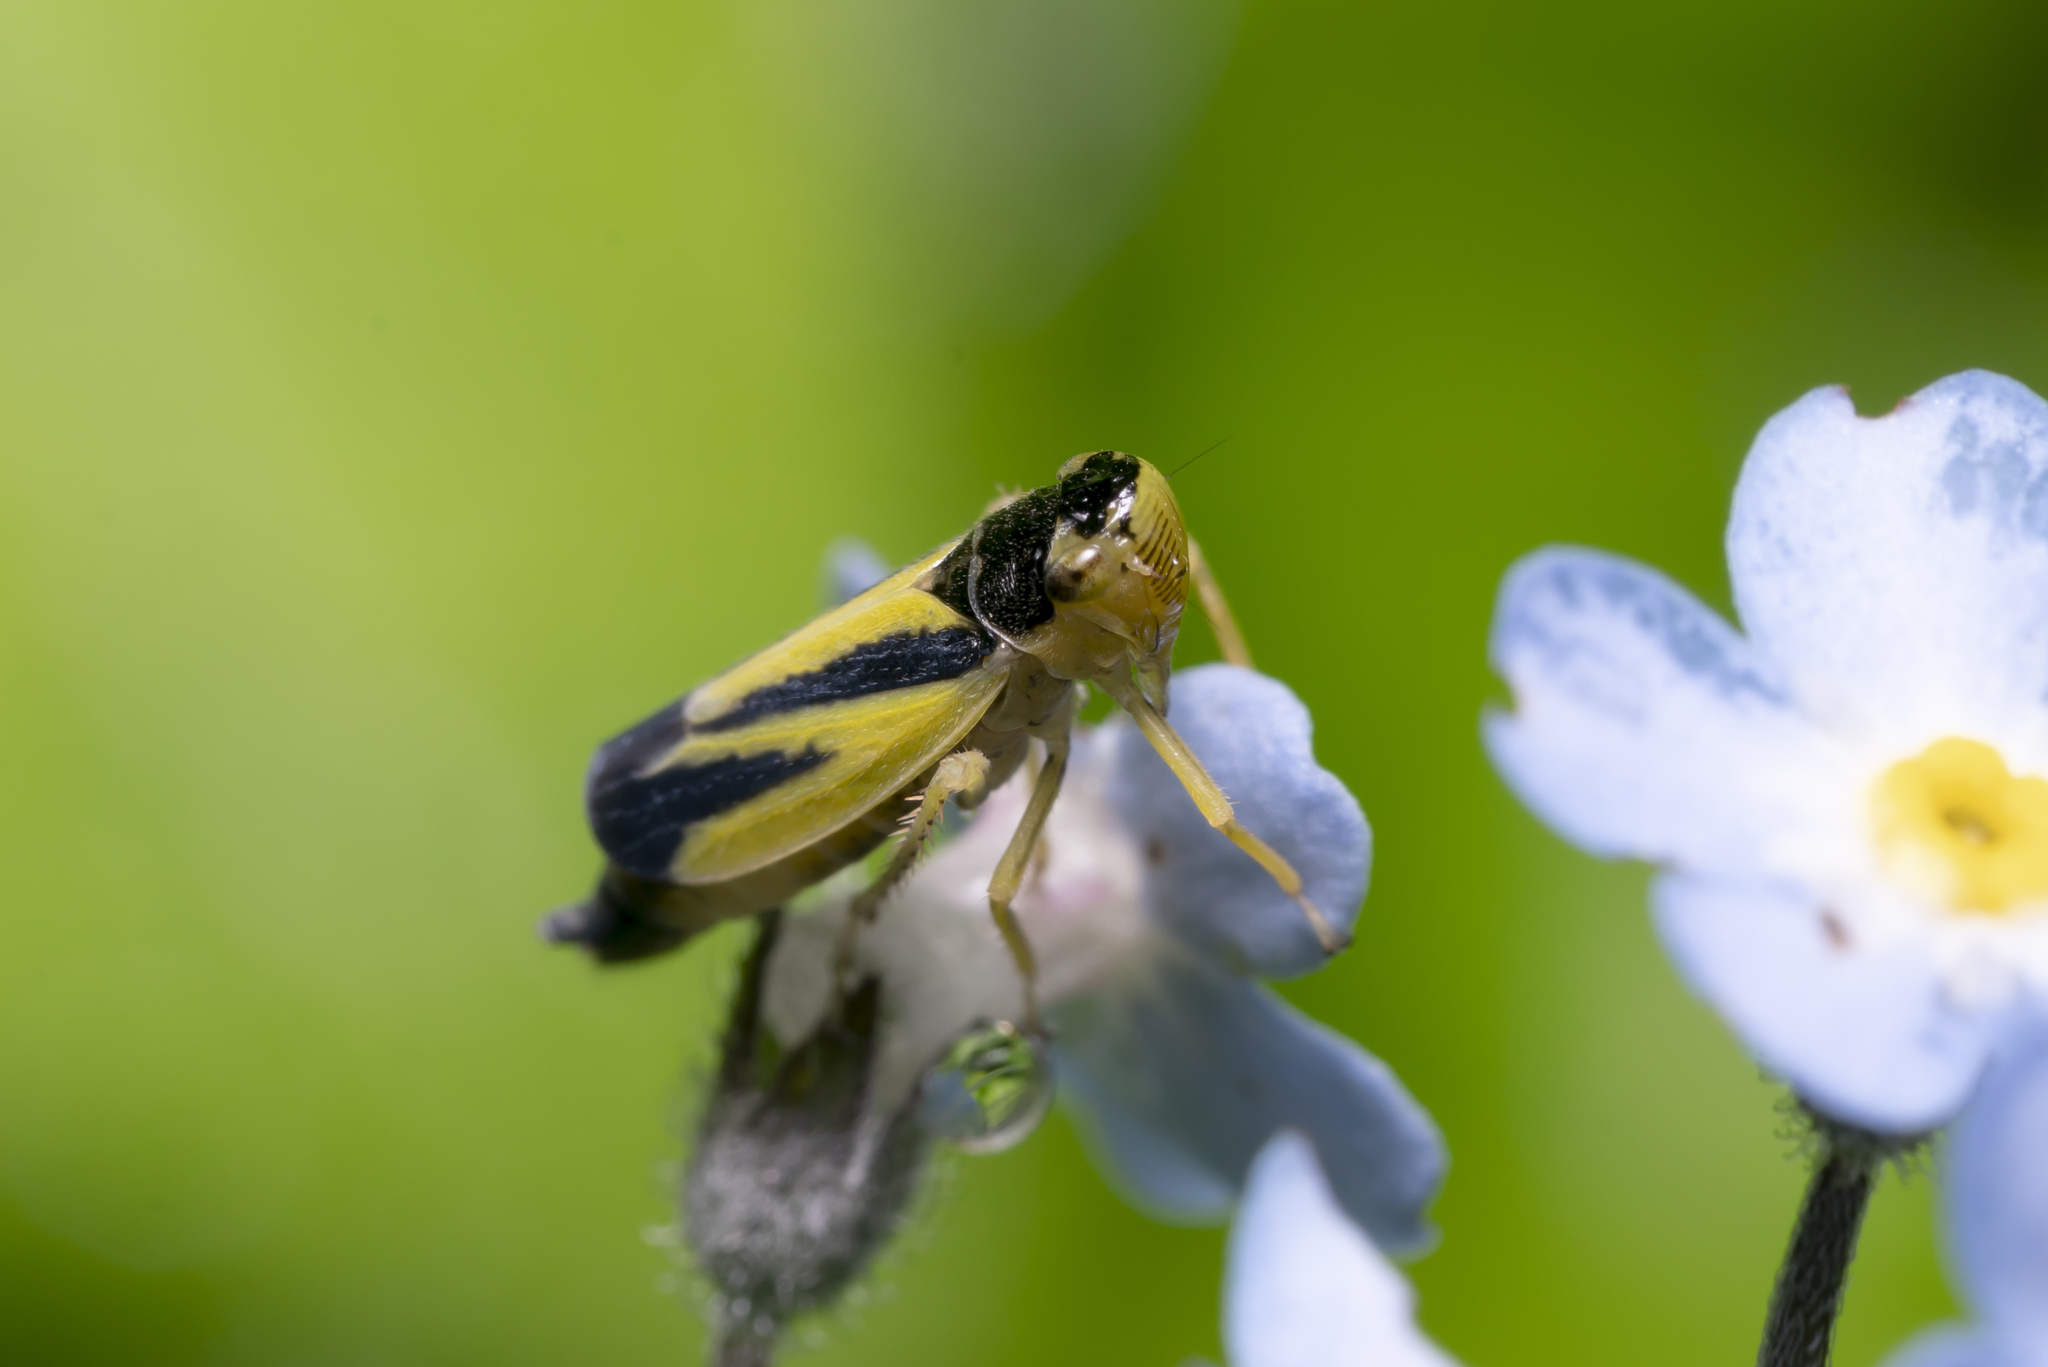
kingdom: Animalia
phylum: Arthropoda
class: Insecta
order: Hemiptera
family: Cicadellidae
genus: Evacanthus
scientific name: Evacanthus interruptus
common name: Leafhopper
